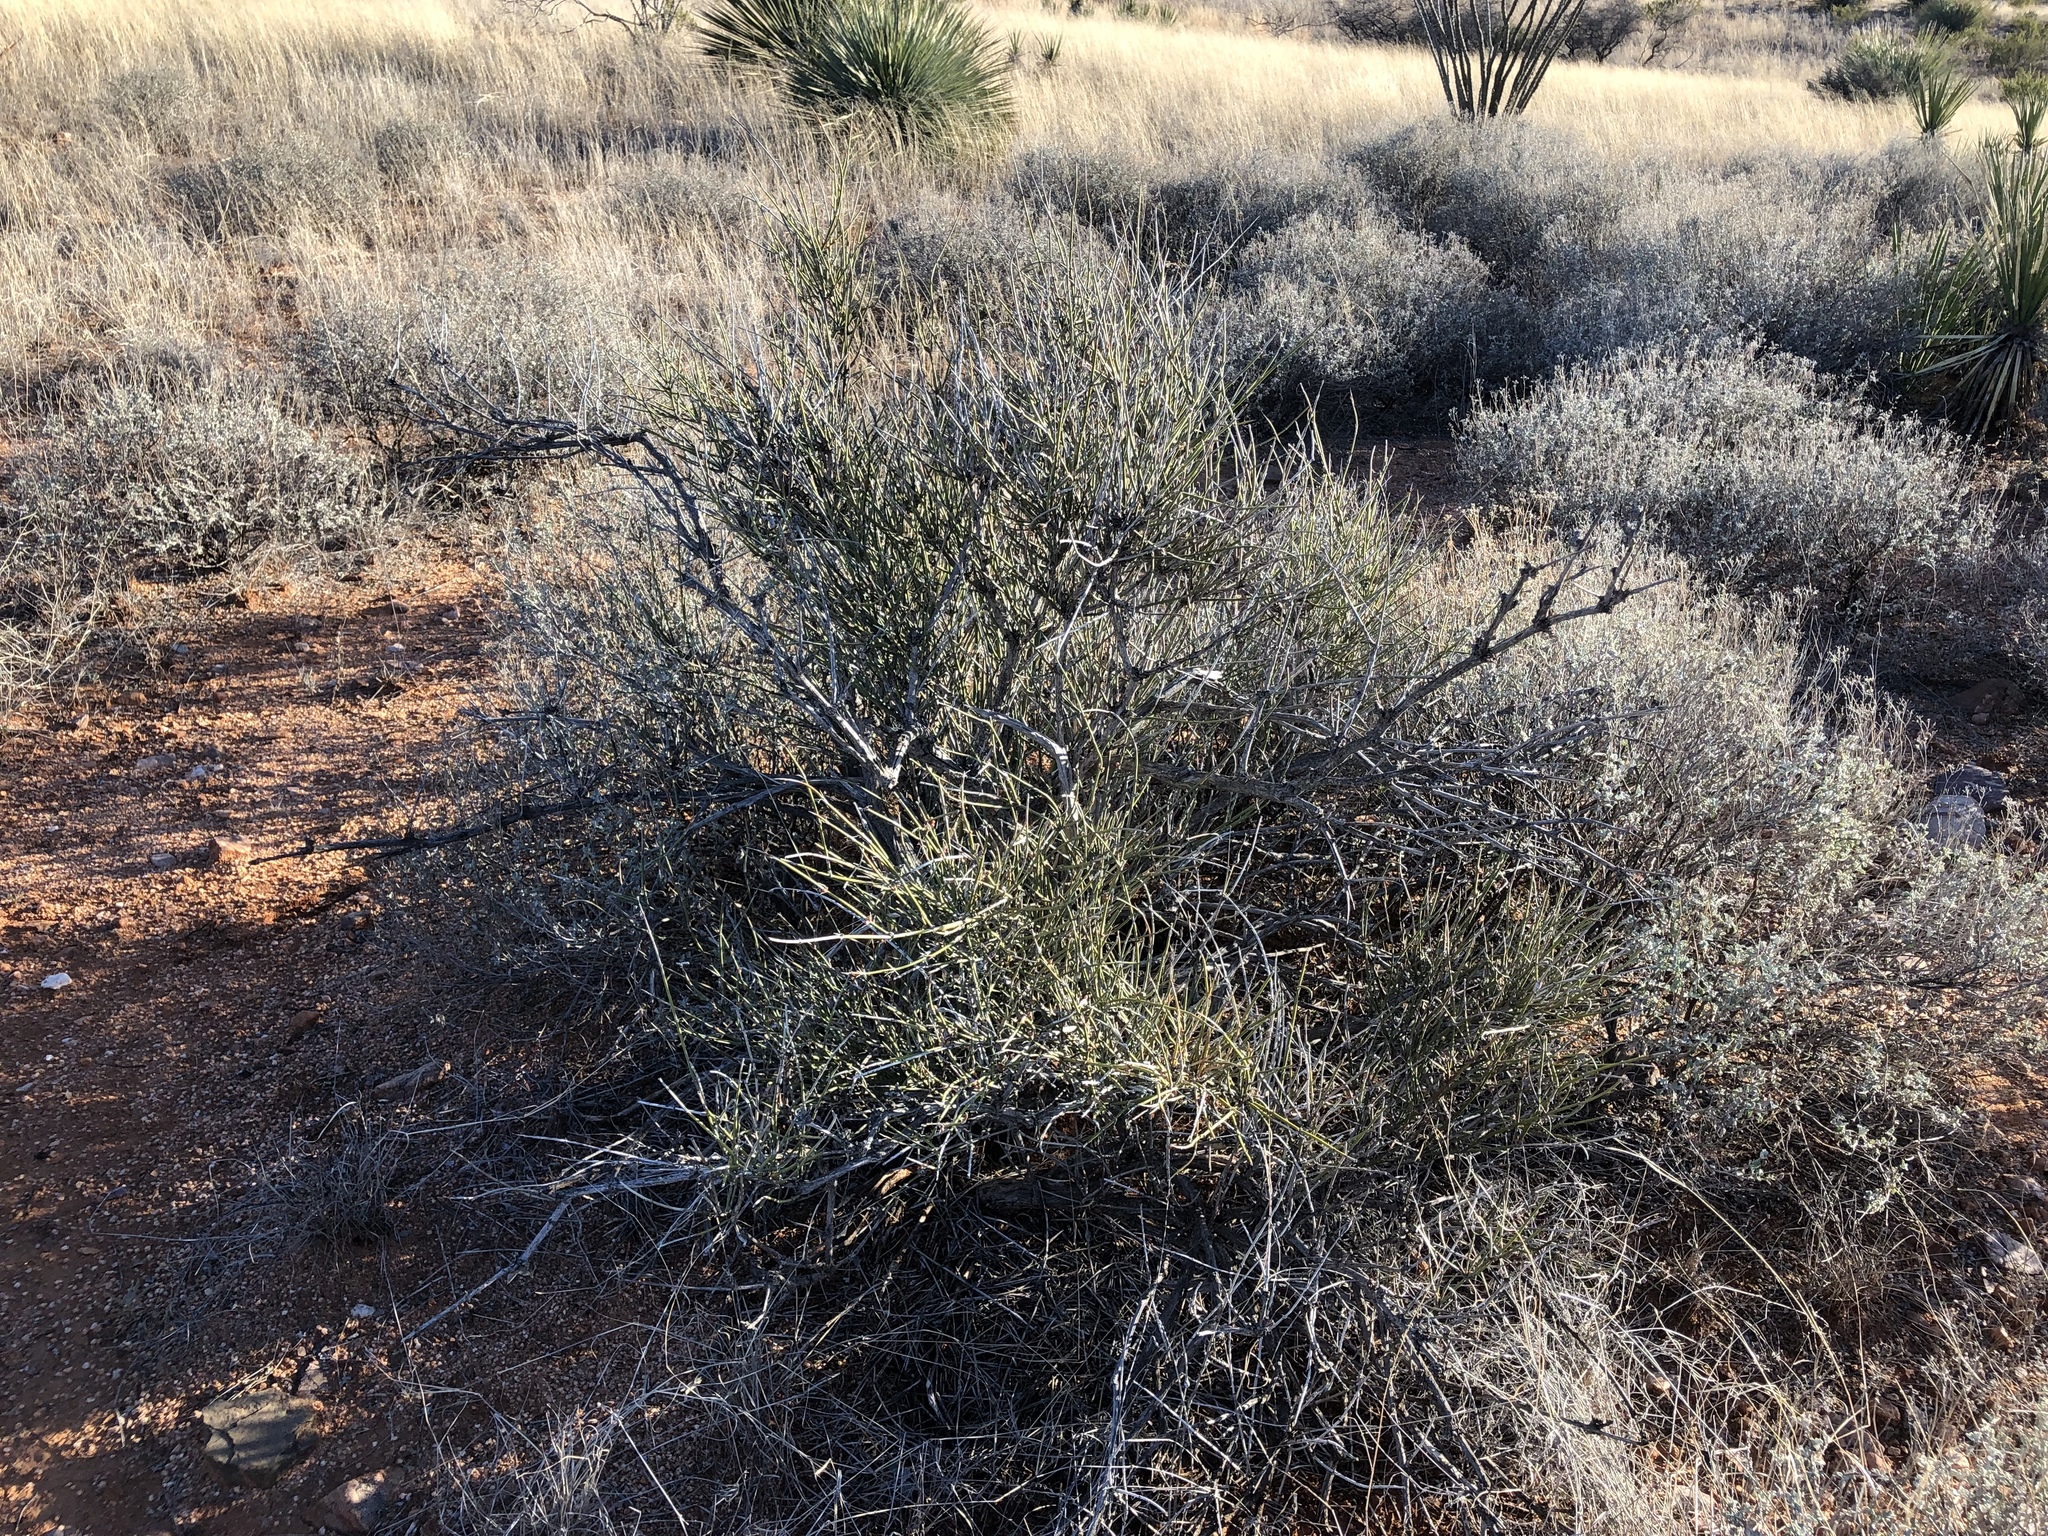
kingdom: Plantae
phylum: Tracheophyta
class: Gnetopsida
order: Ephedrales
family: Ephedraceae
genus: Ephedra
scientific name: Ephedra trifurca
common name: Mexican-tea
